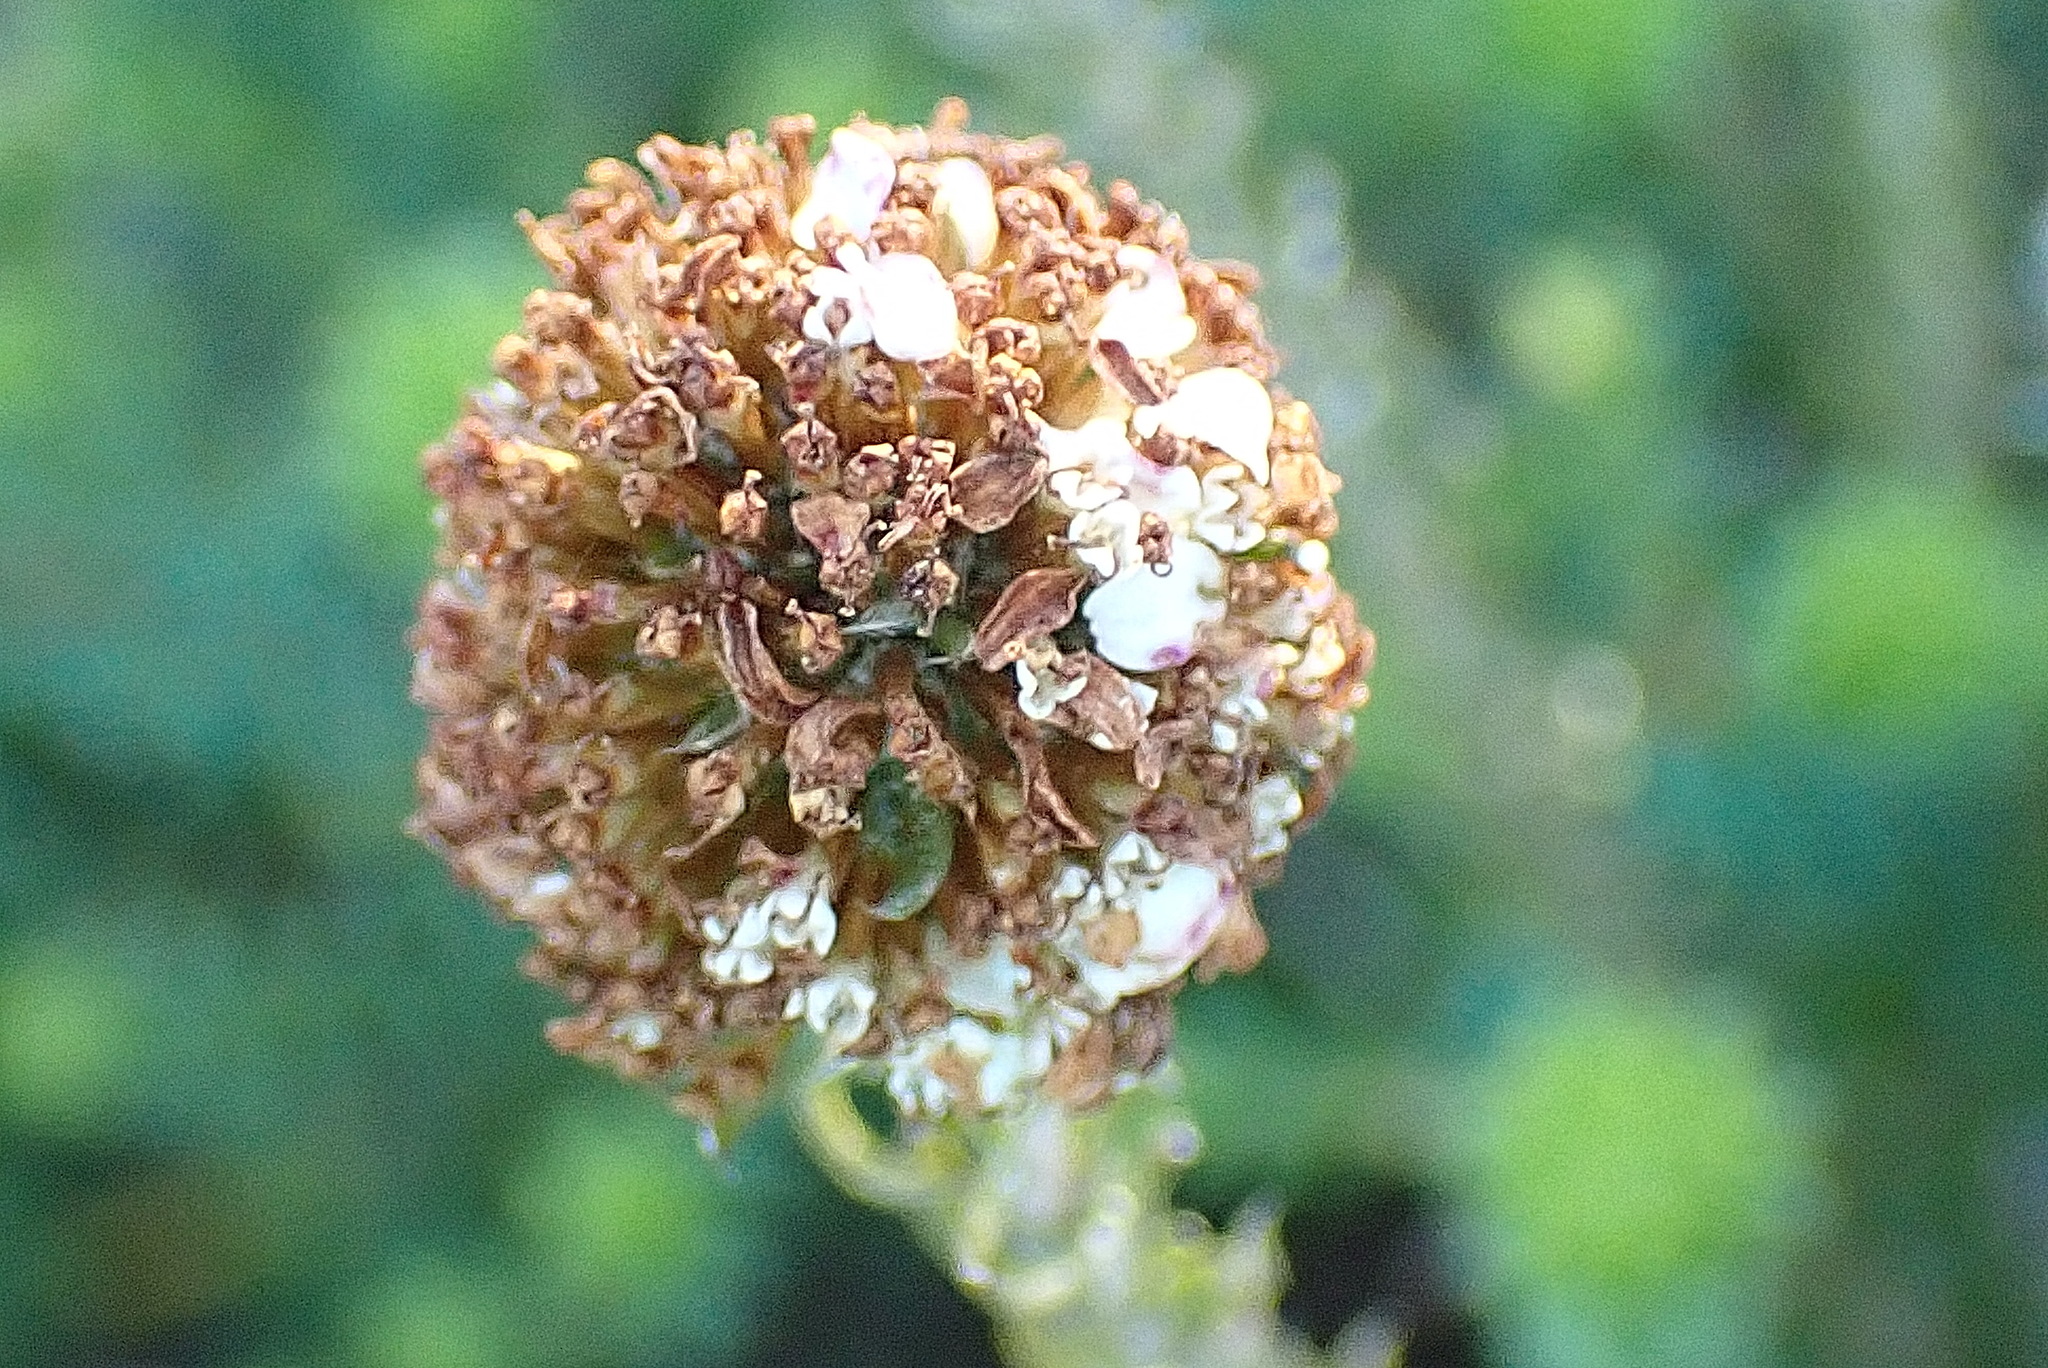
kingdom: Plantae
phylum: Tracheophyta
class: Magnoliopsida
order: Asterales
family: Asteraceae
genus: Disparago
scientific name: Disparago anomala
